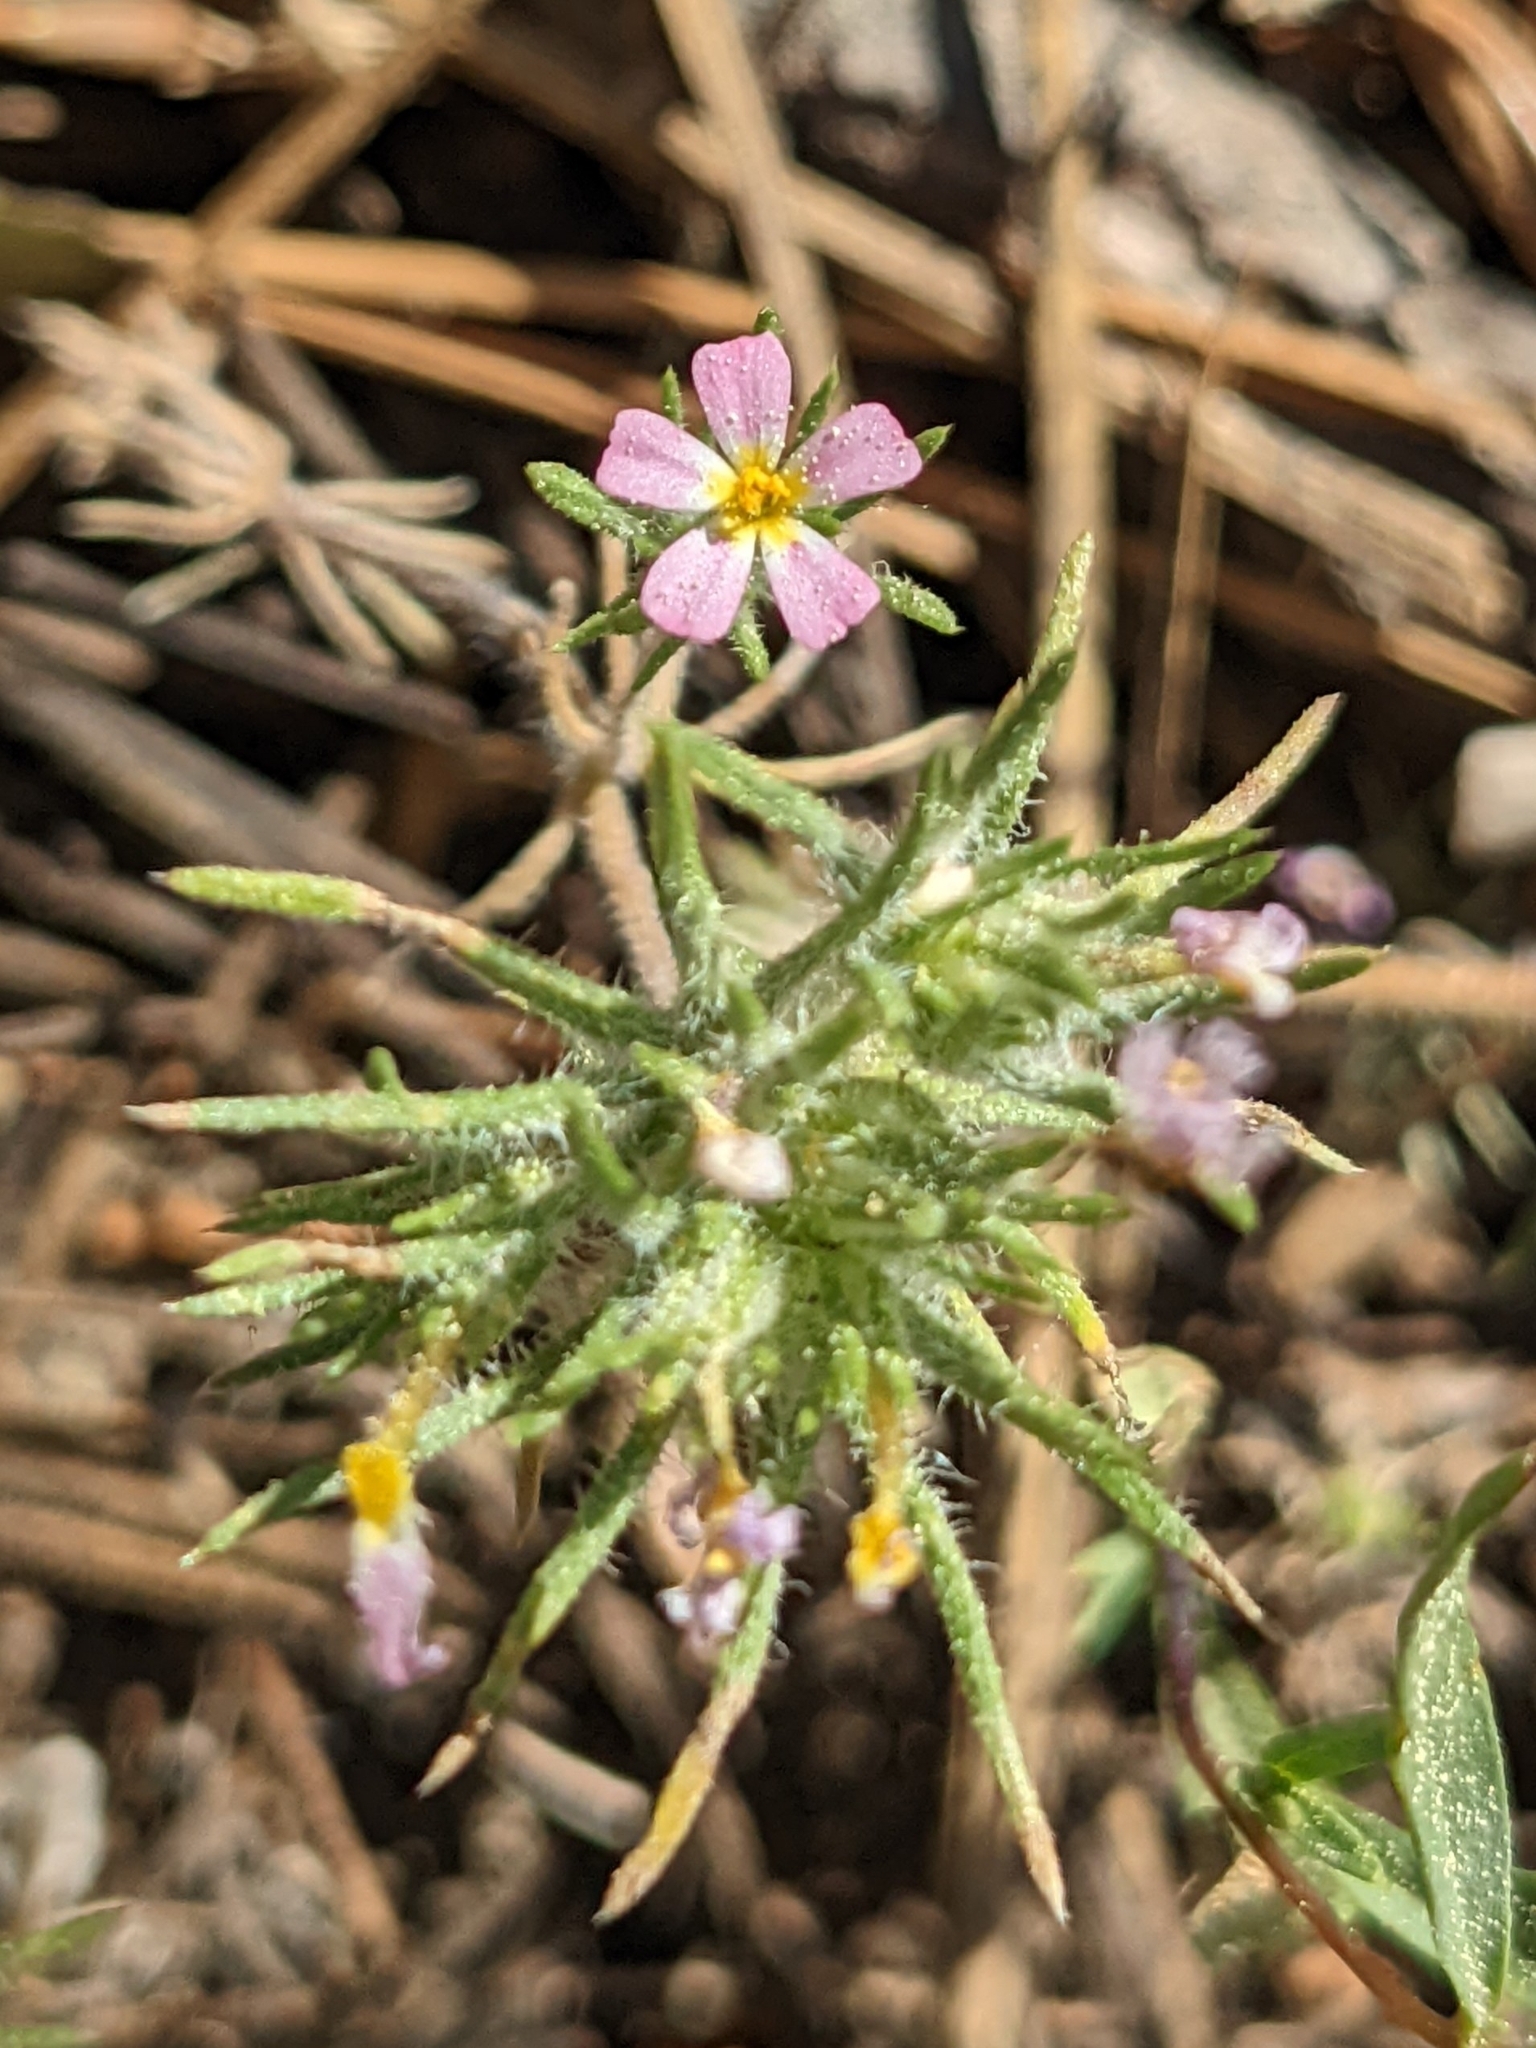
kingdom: Plantae
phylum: Tracheophyta
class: Magnoliopsida
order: Ericales
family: Polemoniaceae
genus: Leptosiphon
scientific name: Leptosiphon ciliatus
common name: Whiskerbrush
